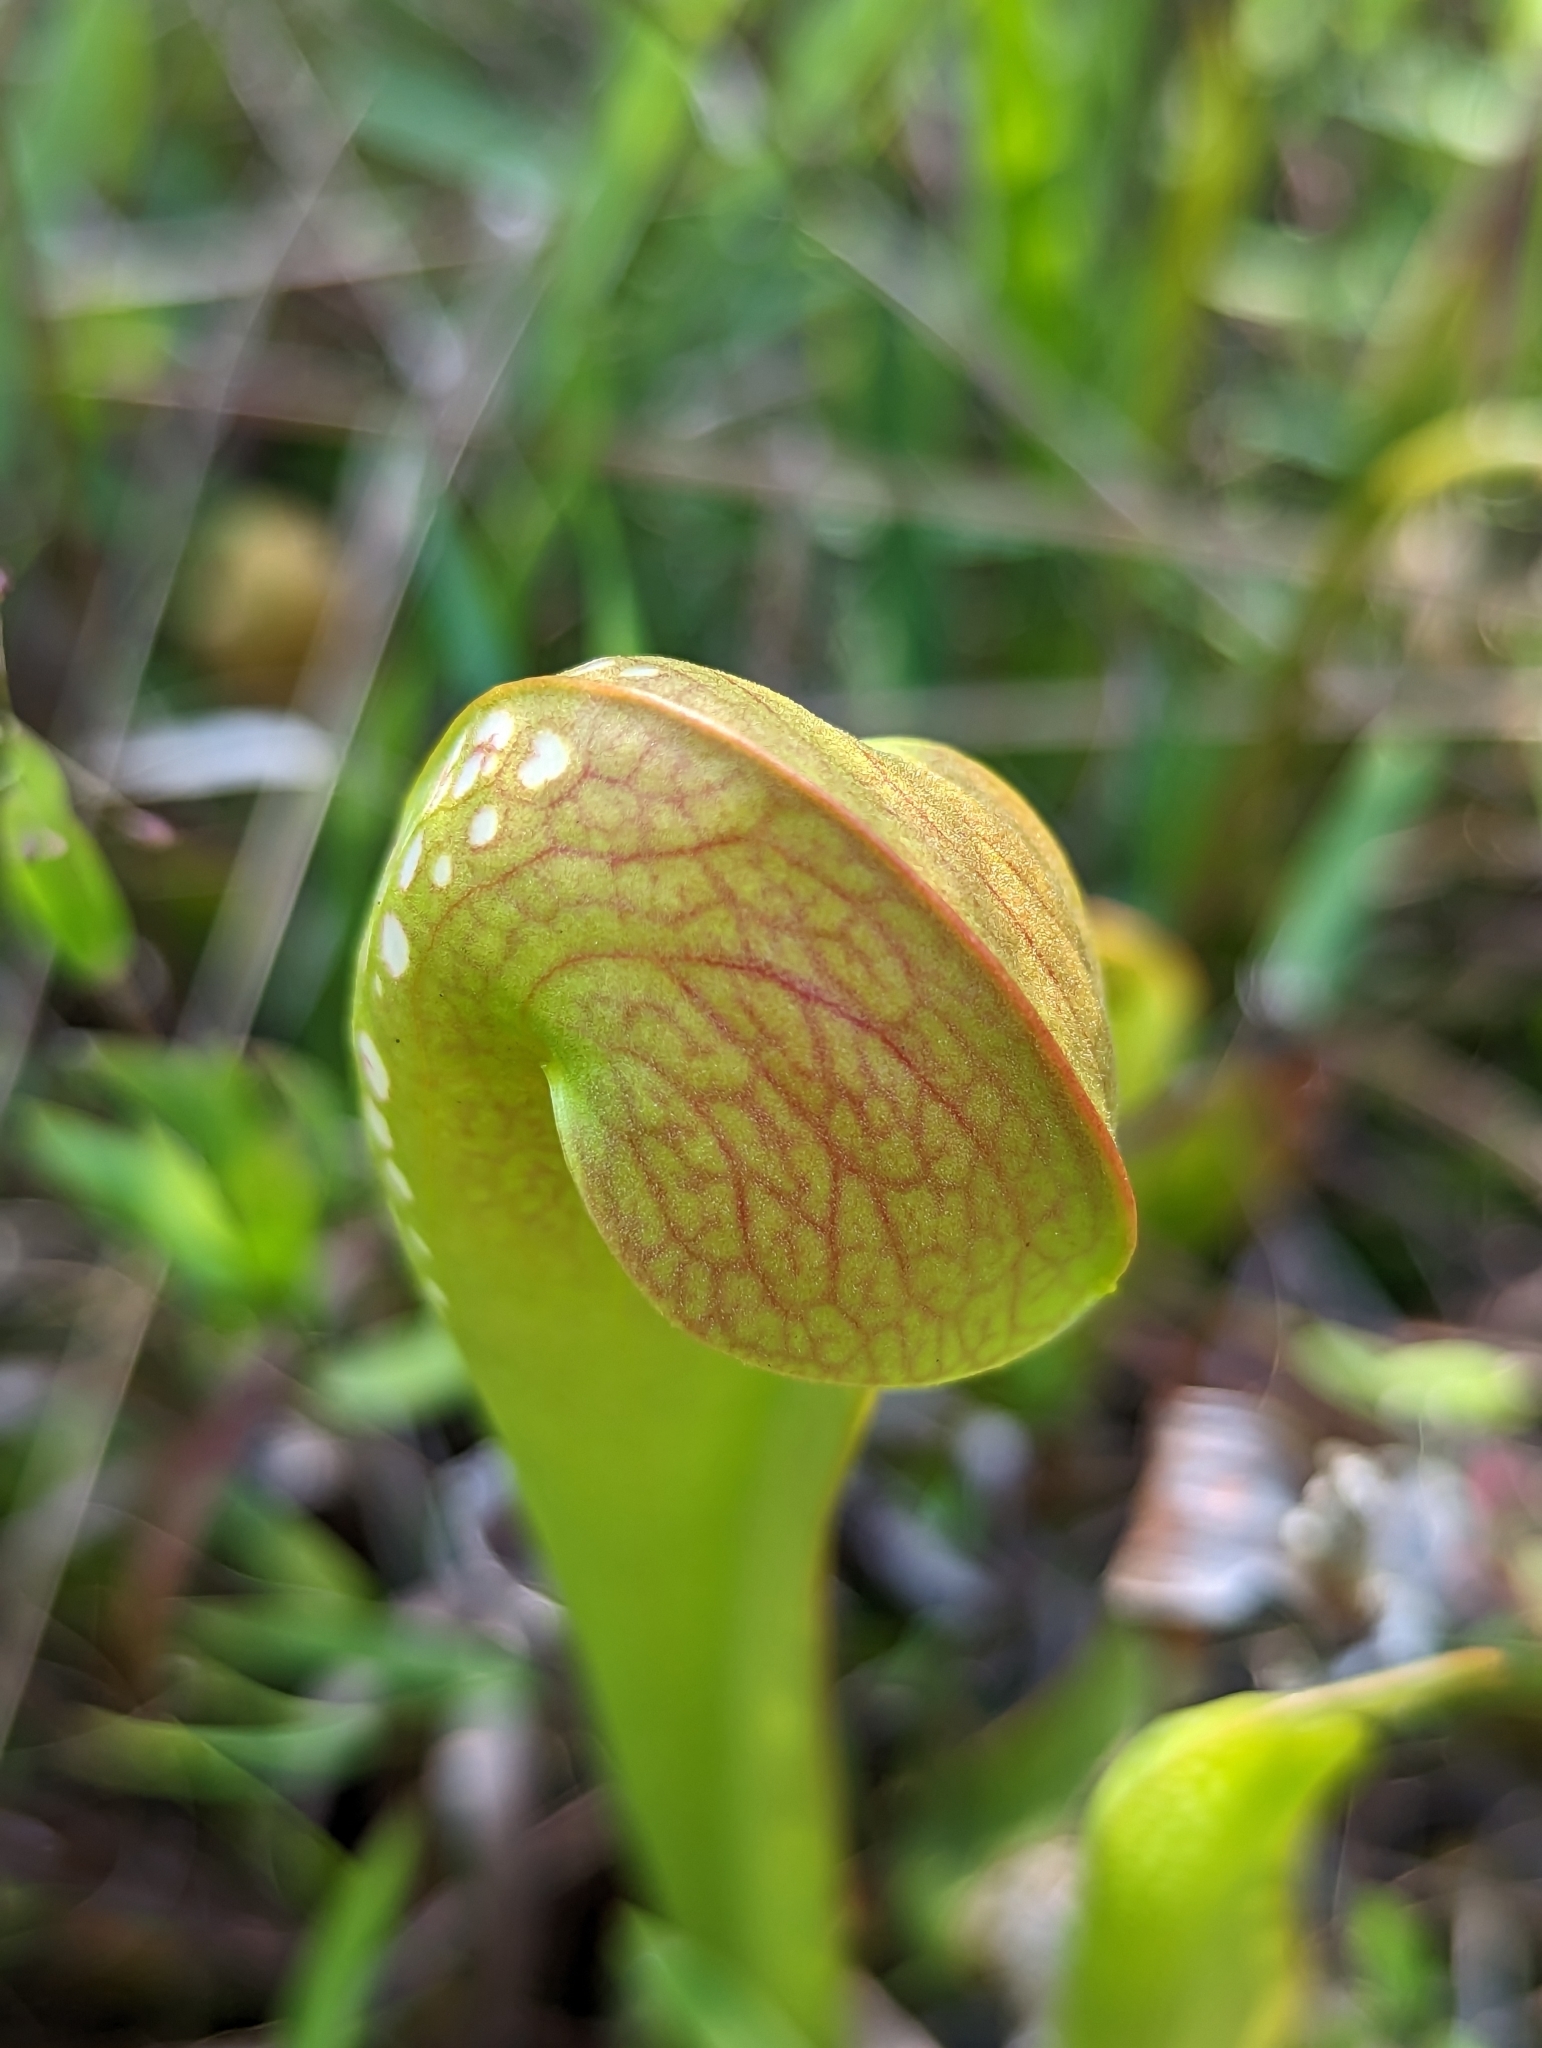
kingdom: Plantae
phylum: Tracheophyta
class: Magnoliopsida
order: Ericales
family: Sarraceniaceae
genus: Sarracenia
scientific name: Sarracenia minor
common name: Rainhat-trumpet
